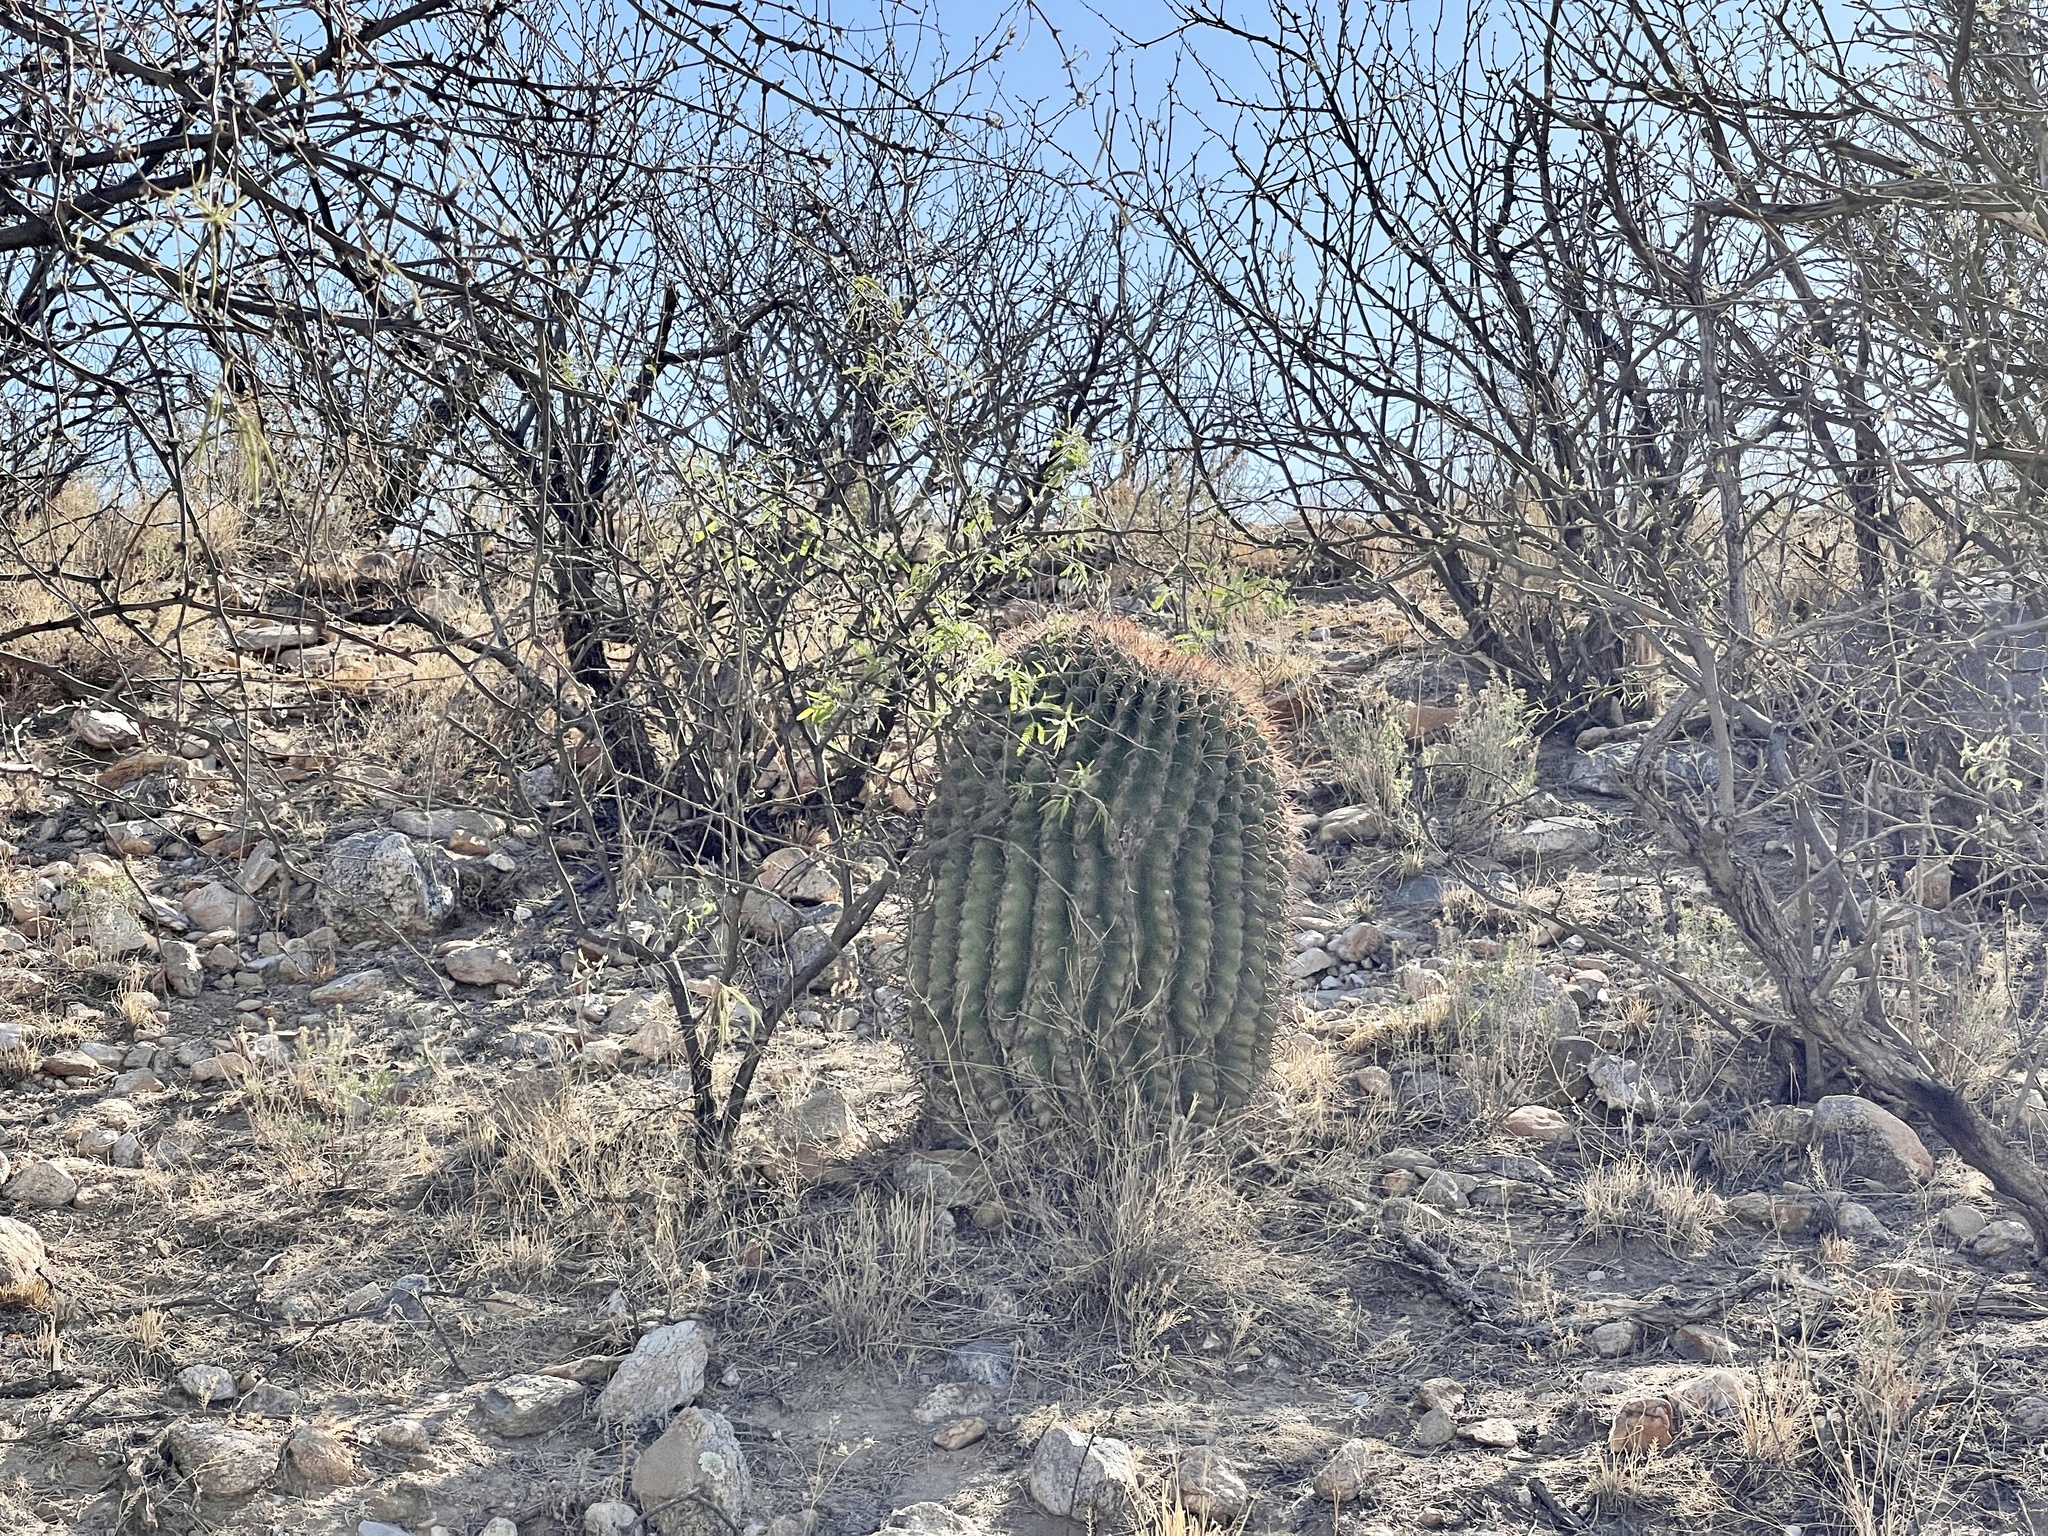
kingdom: Plantae
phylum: Tracheophyta
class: Magnoliopsida
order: Caryophyllales
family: Cactaceae
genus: Ferocactus
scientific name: Ferocactus wislizeni
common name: Candy barrel cactus
